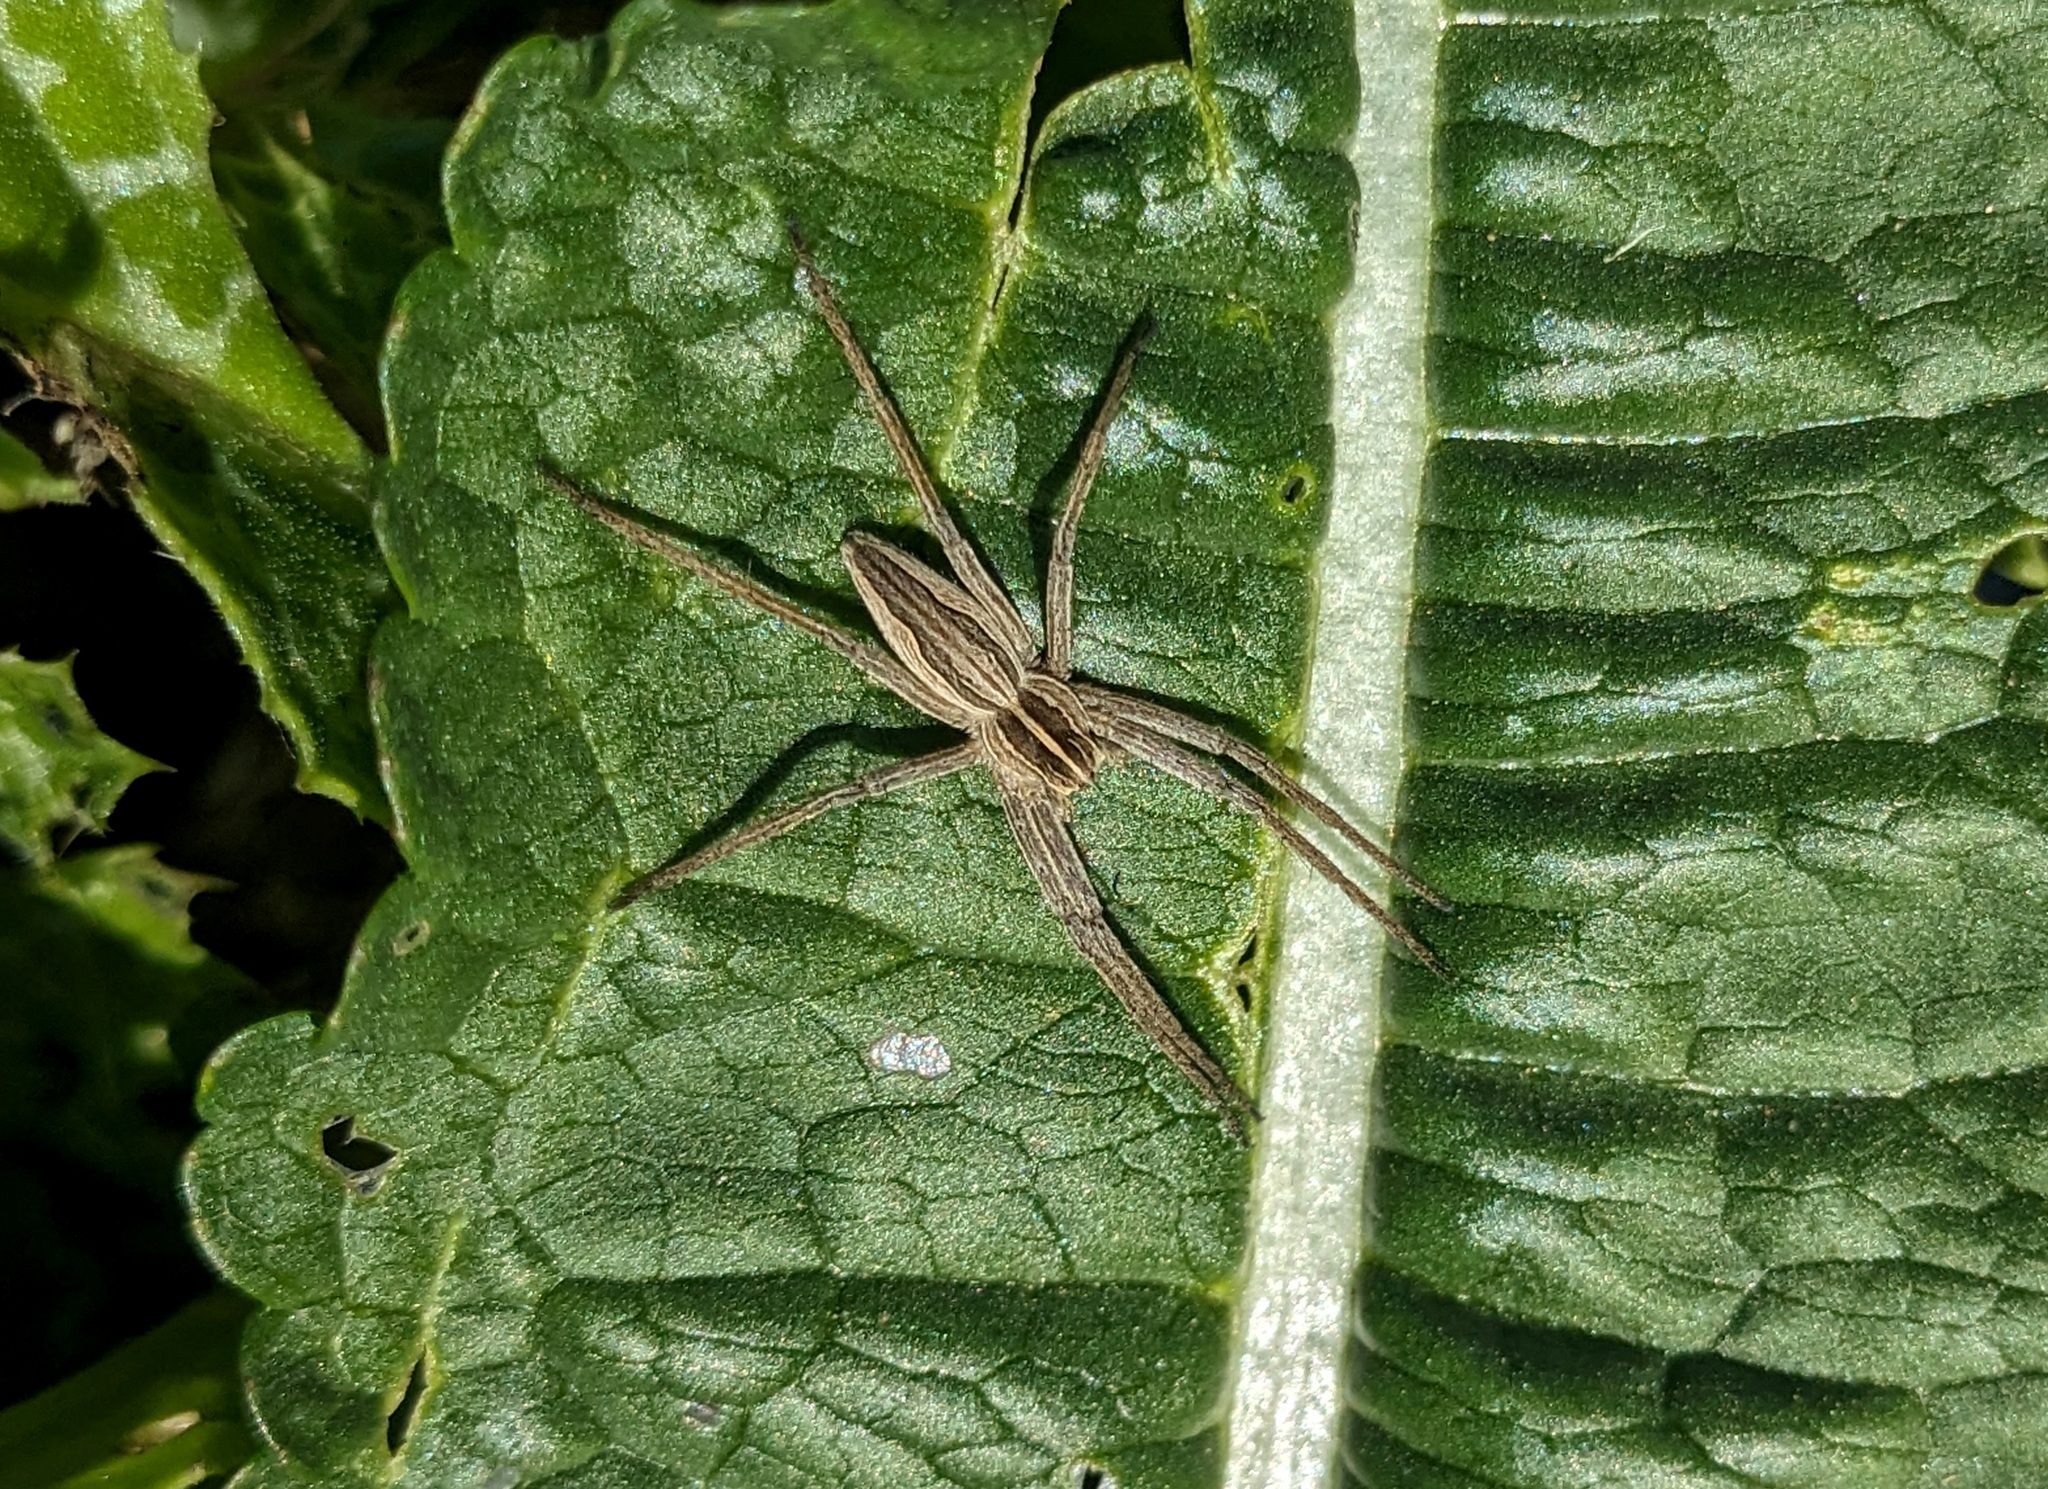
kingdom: Animalia
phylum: Arthropoda
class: Arachnida
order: Araneae
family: Pisauridae
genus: Pisaura
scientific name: Pisaura mirabilis
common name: Tent spider
